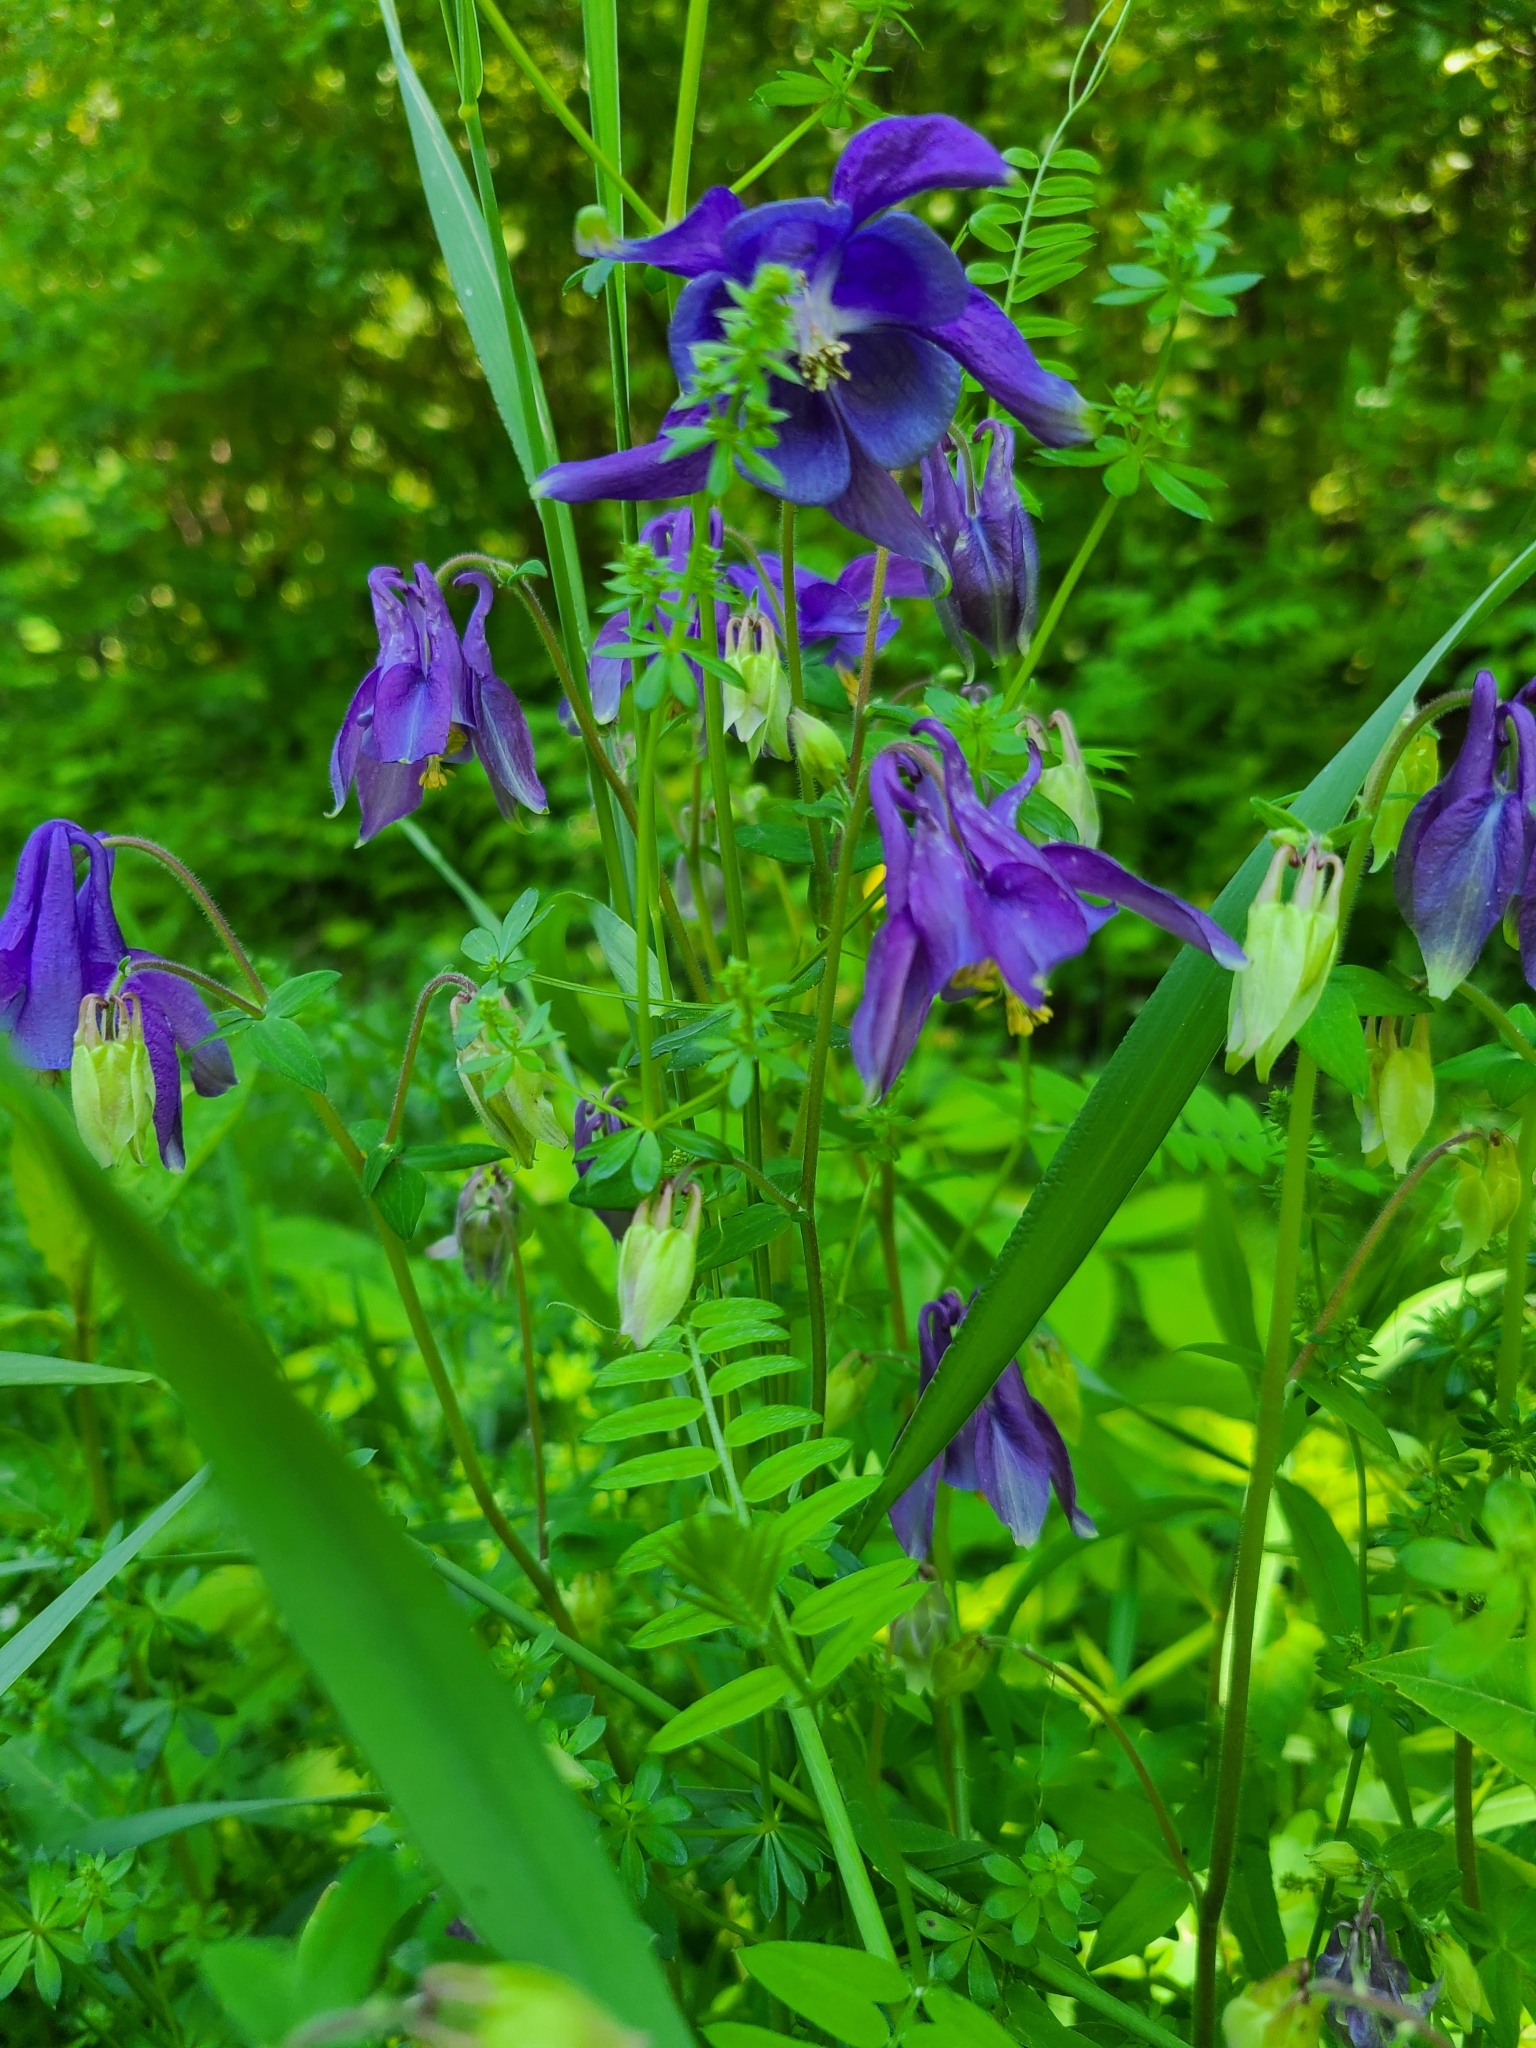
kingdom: Plantae
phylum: Tracheophyta
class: Magnoliopsida
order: Ranunculales
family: Ranunculaceae
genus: Aquilegia
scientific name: Aquilegia vulgaris
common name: Columbine
